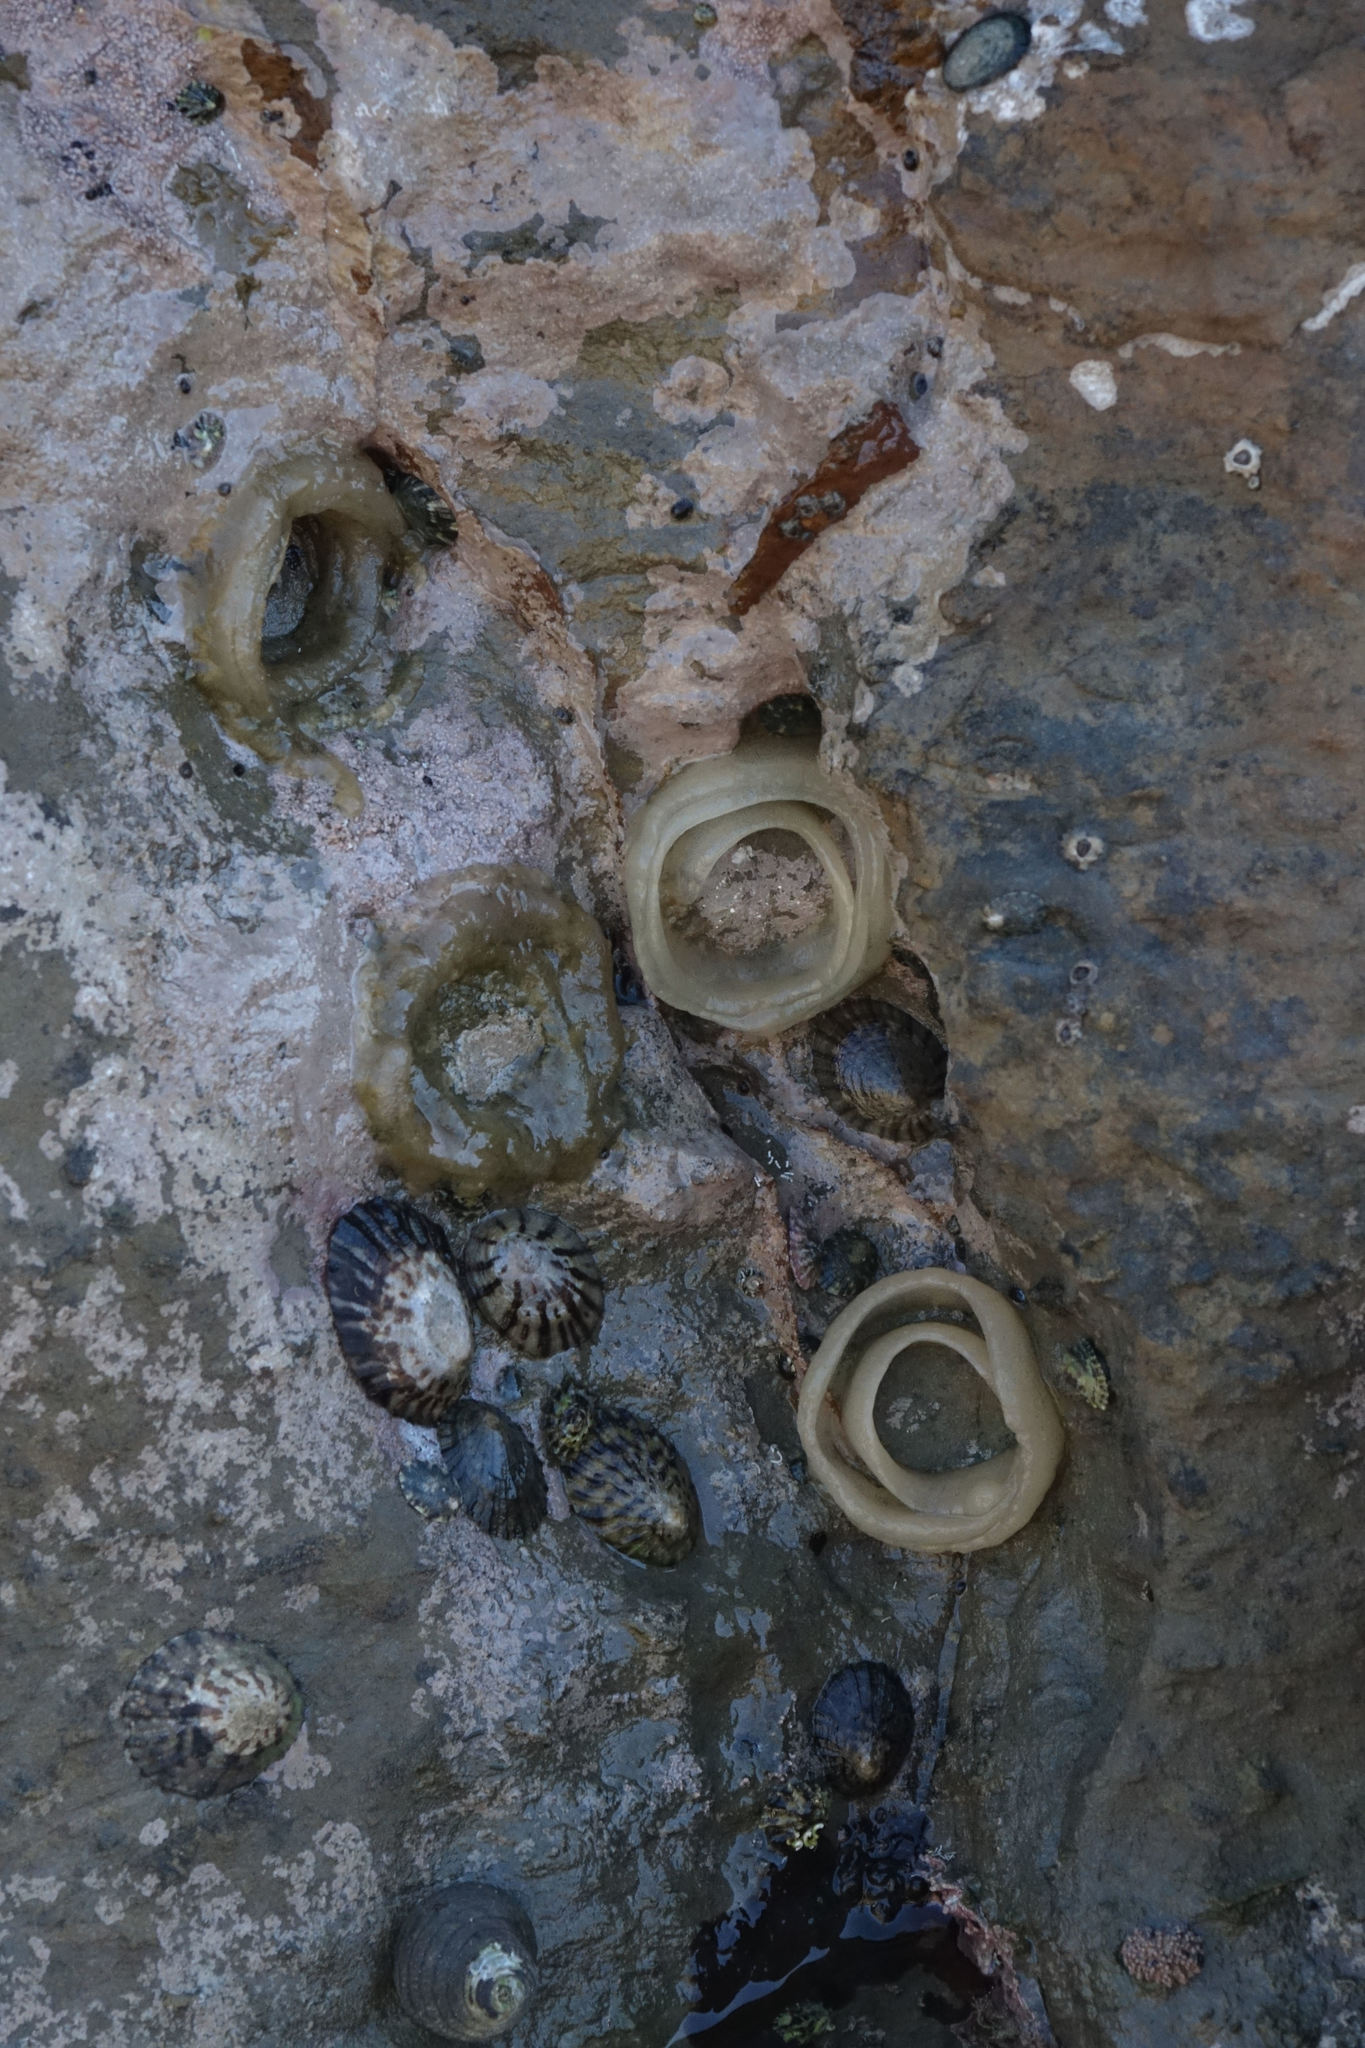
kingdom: Animalia
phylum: Mollusca
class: Gastropoda
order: Siphonariida
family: Siphonariidae
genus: Benhamina
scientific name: Benhamina obliquata
